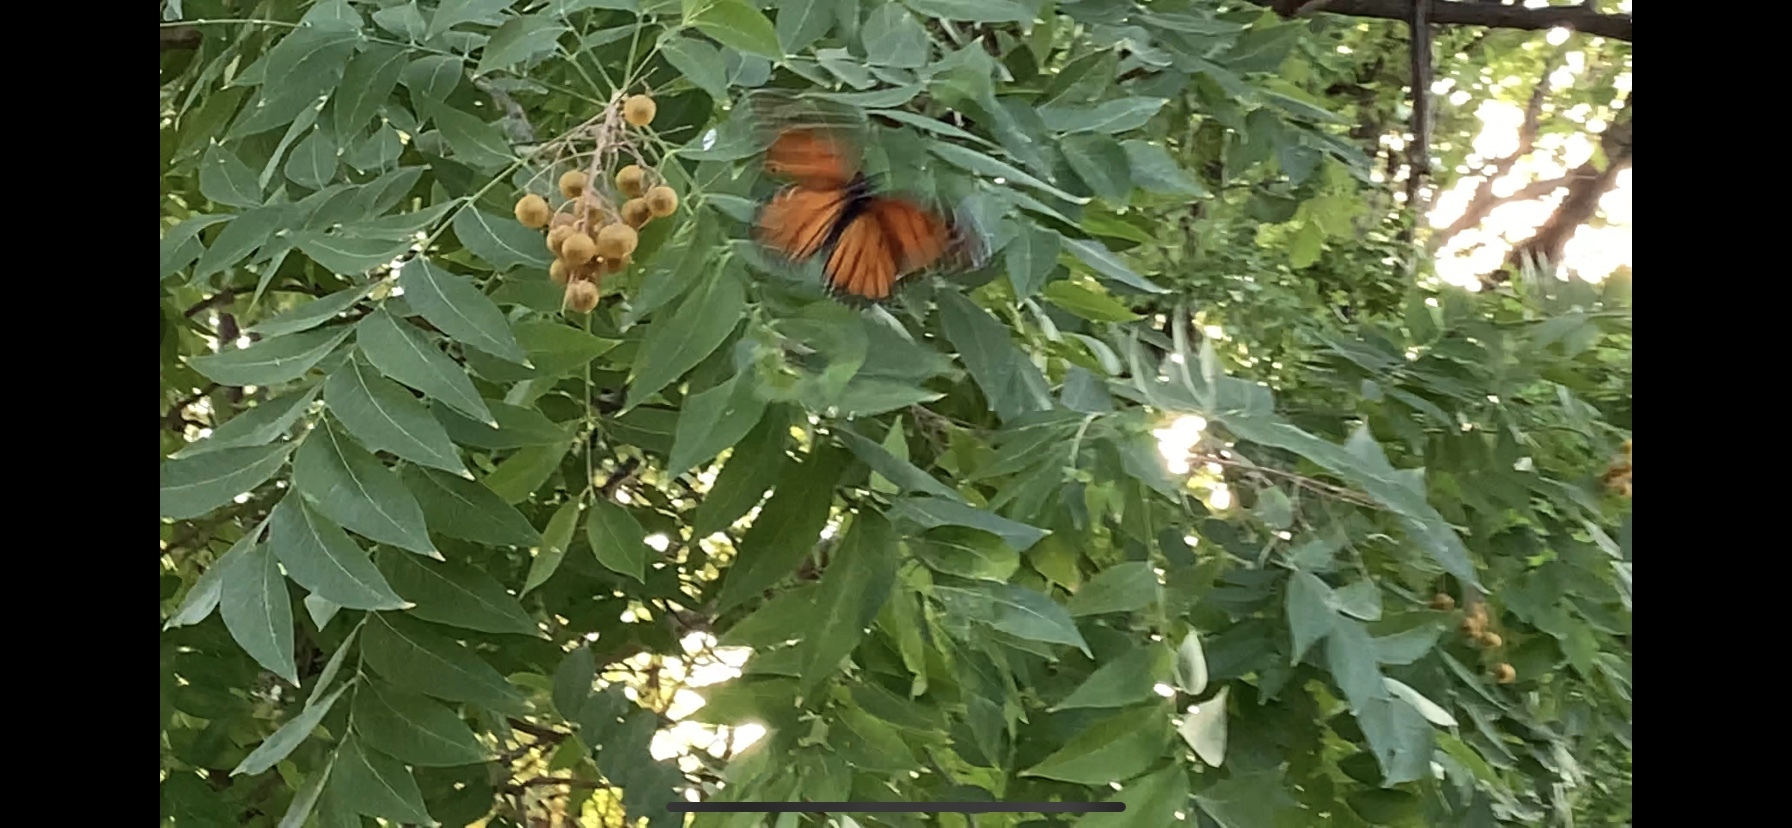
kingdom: Animalia
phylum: Arthropoda
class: Insecta
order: Lepidoptera
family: Nymphalidae
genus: Danaus
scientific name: Danaus plexippus
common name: Monarch
